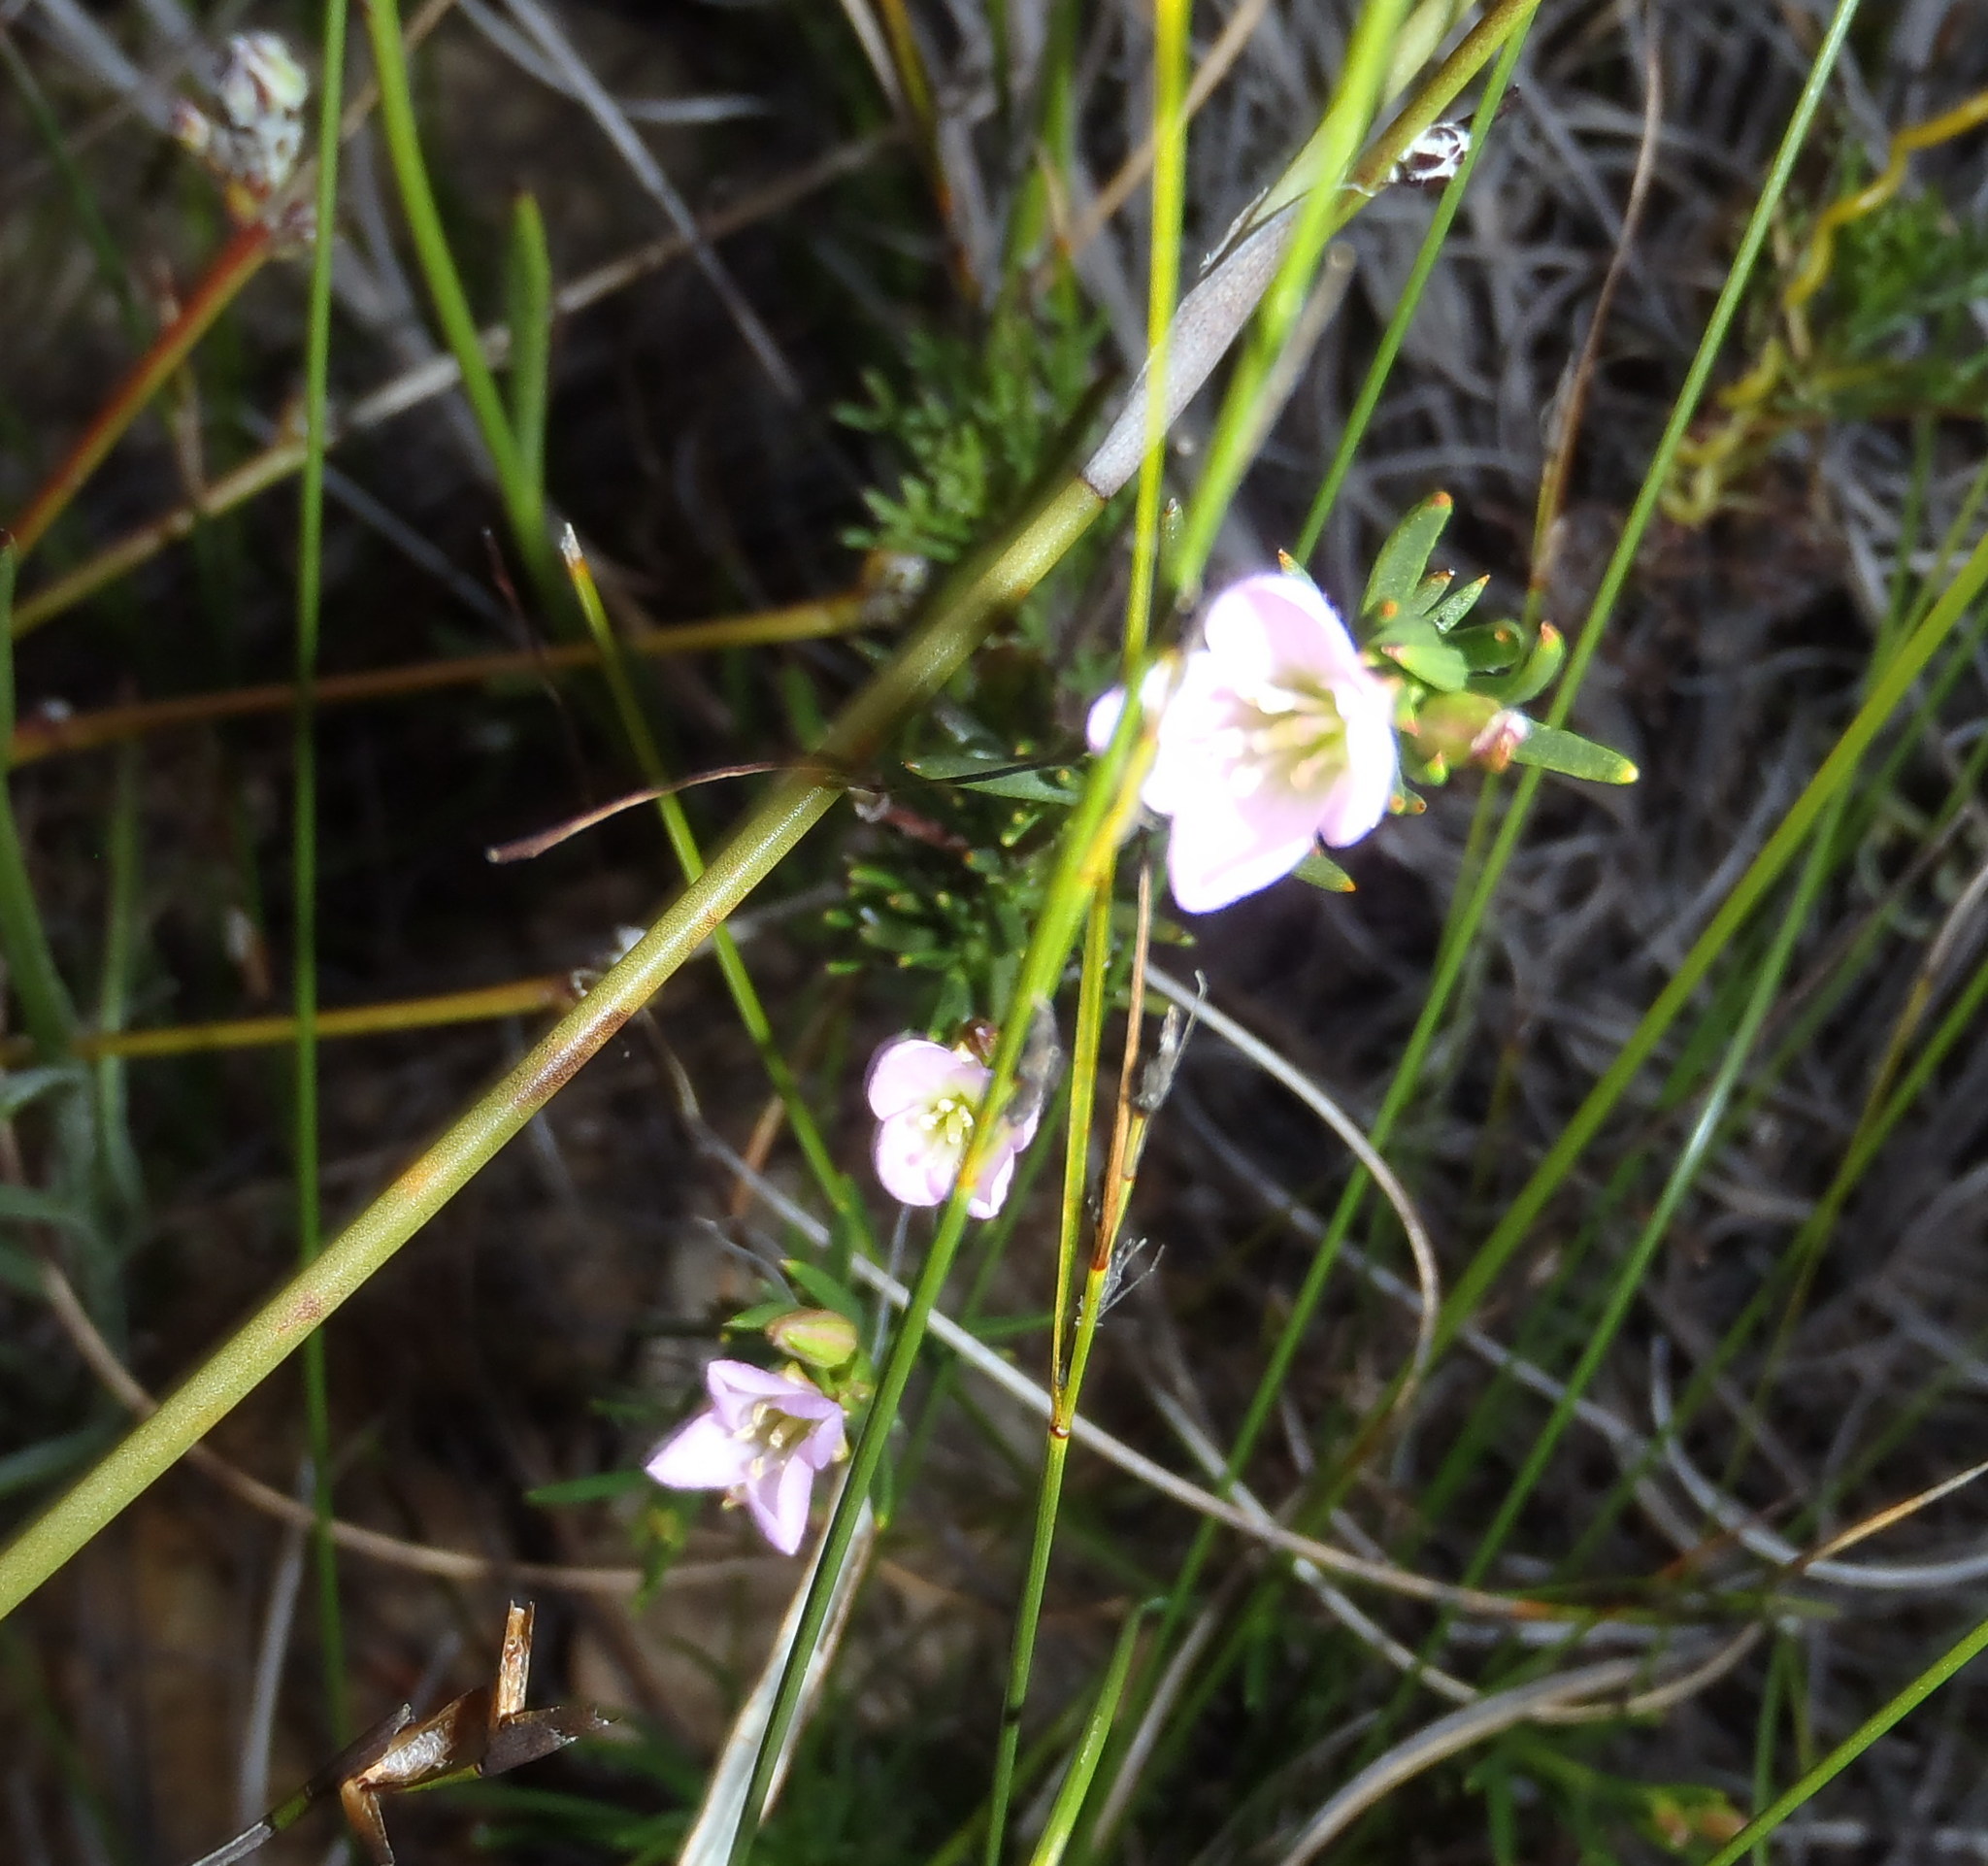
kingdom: Plantae
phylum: Tracheophyta
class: Magnoliopsida
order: Brassicales
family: Brassicaceae
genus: Heliophila
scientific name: Heliophila scoparia
